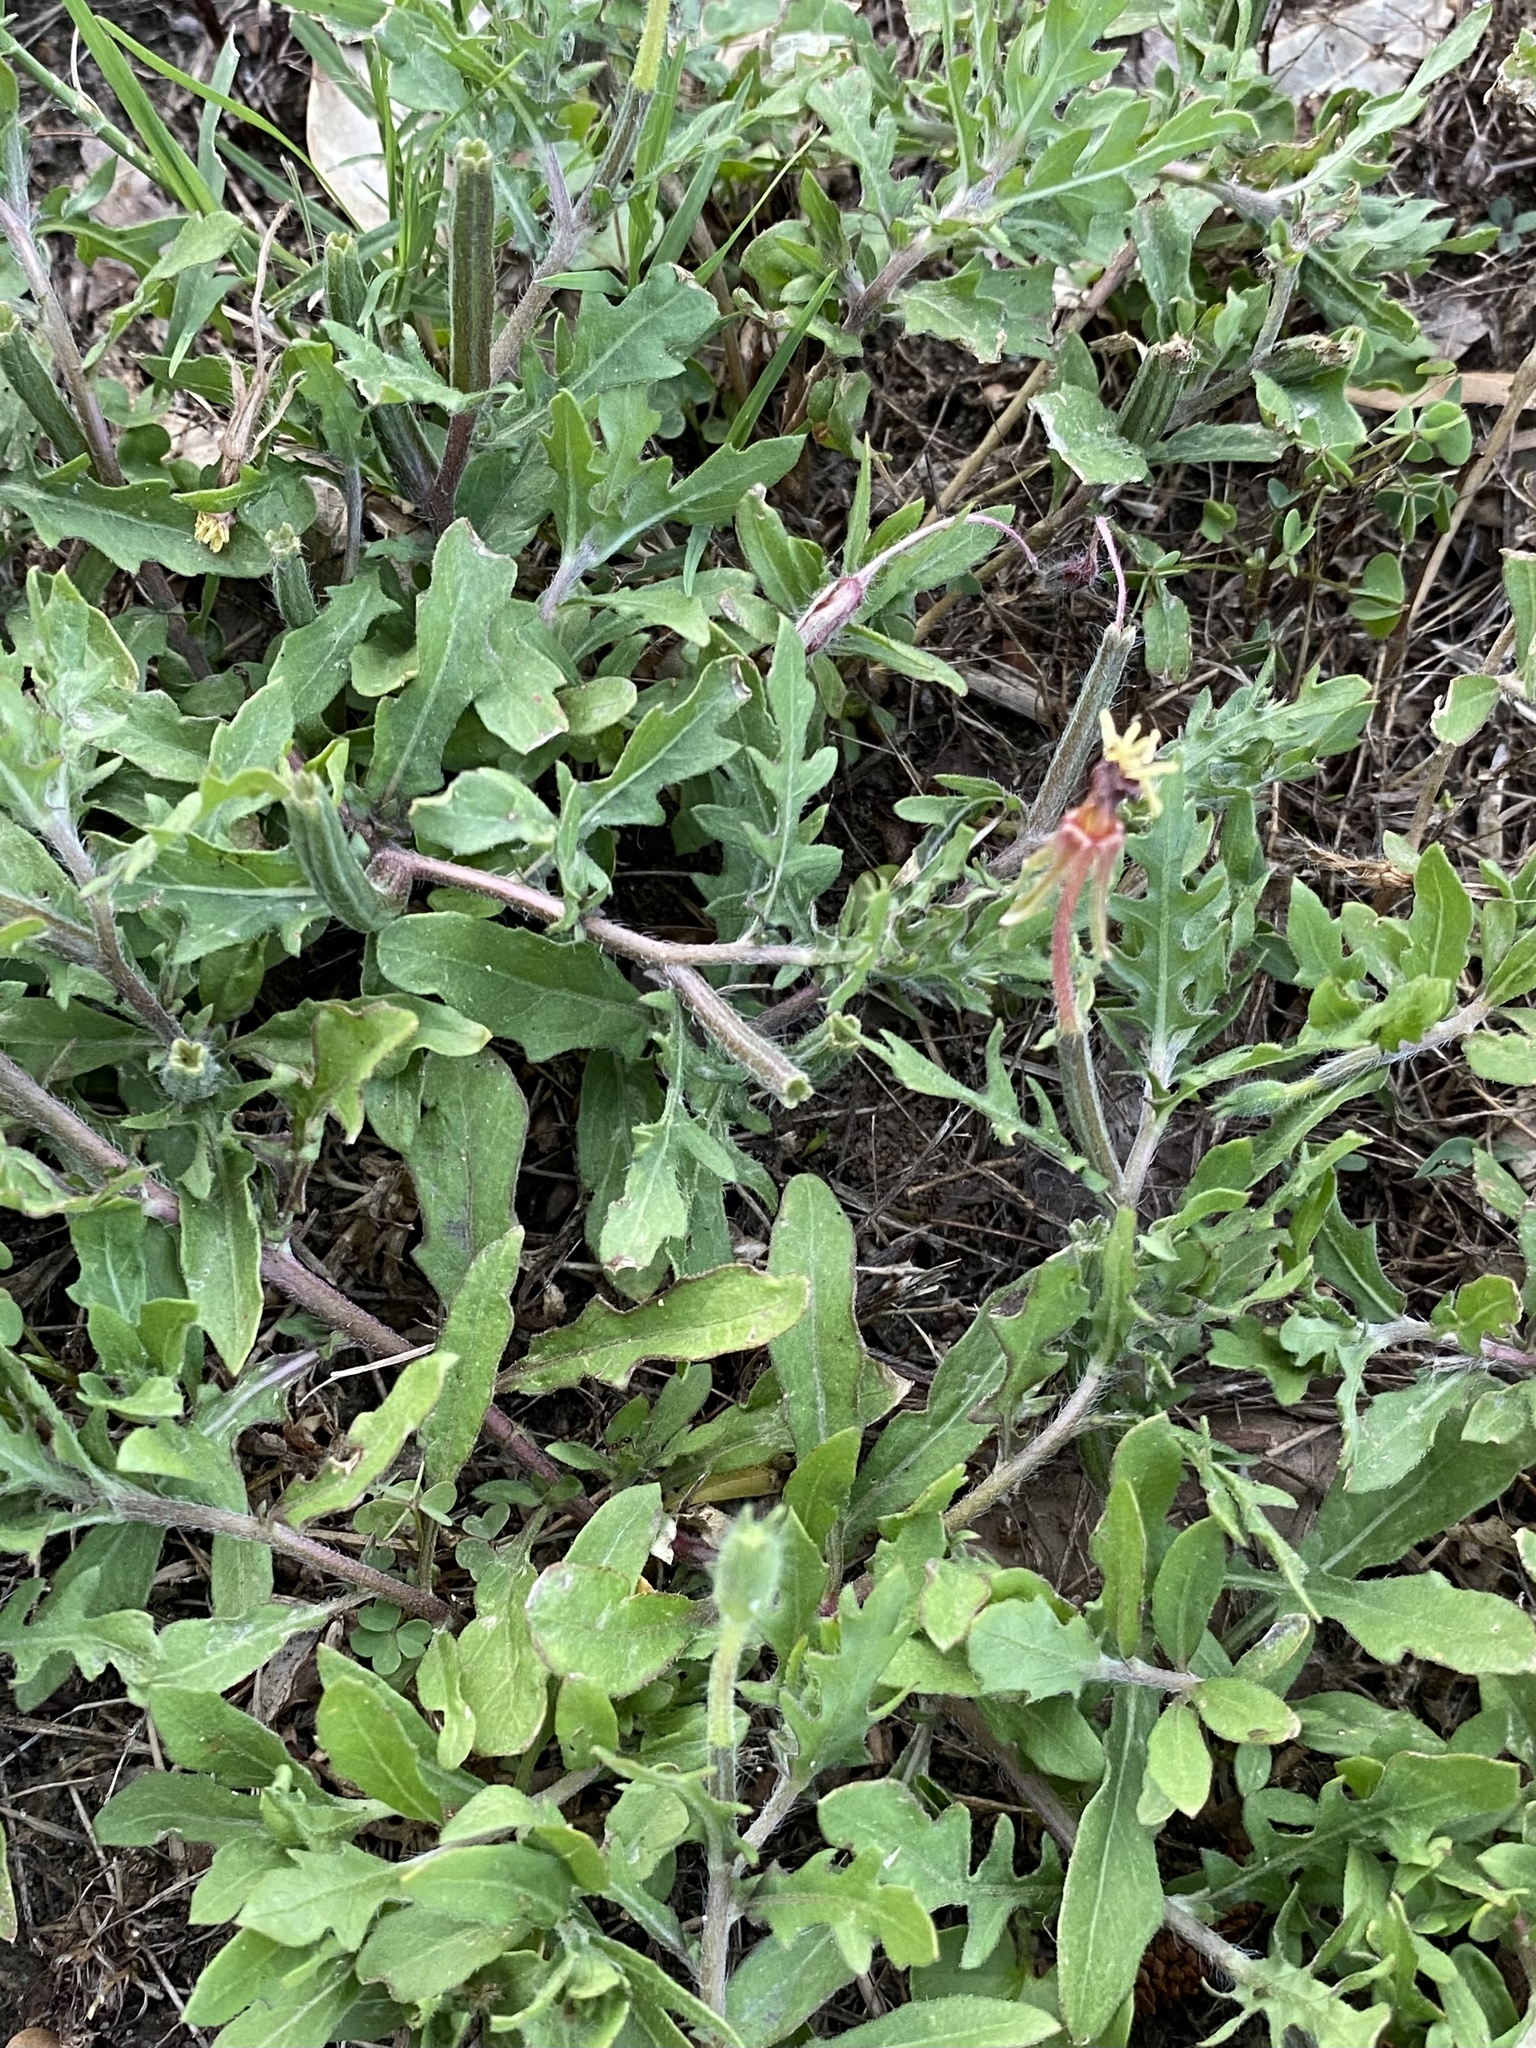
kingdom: Plantae
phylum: Tracheophyta
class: Magnoliopsida
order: Myrtales
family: Onagraceae
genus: Oenothera
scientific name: Oenothera laciniata
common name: Cut-leaved evening-primrose
